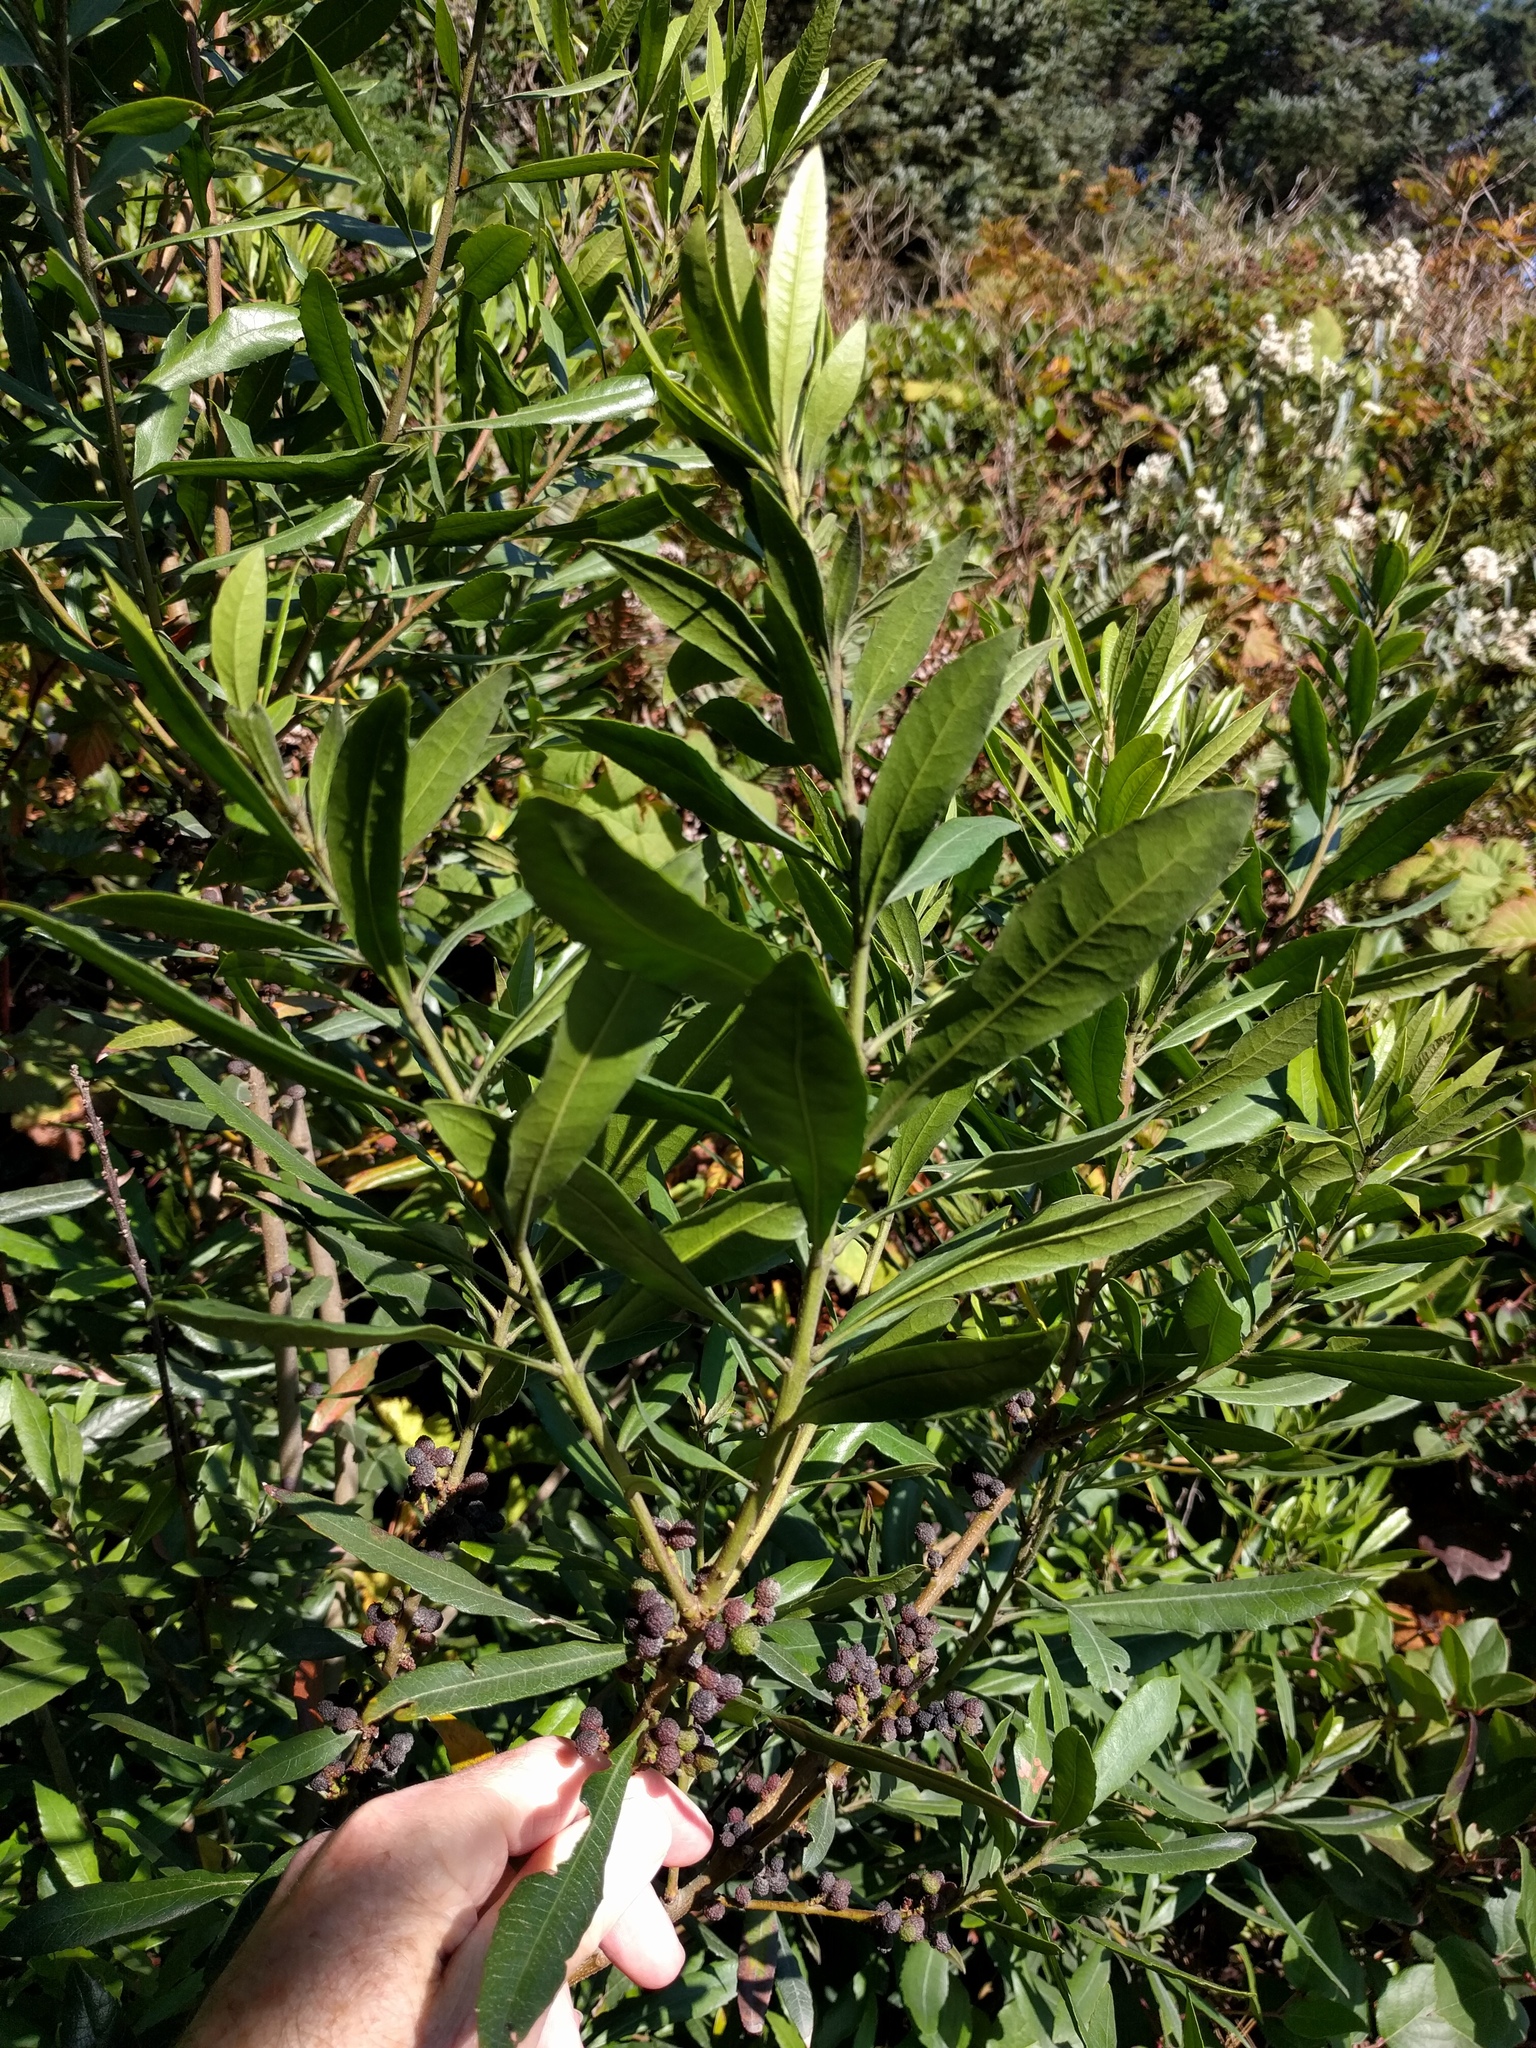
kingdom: Plantae
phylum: Tracheophyta
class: Magnoliopsida
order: Fagales
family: Myricaceae
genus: Morella
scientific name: Morella californica
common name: California wax-myrtle
